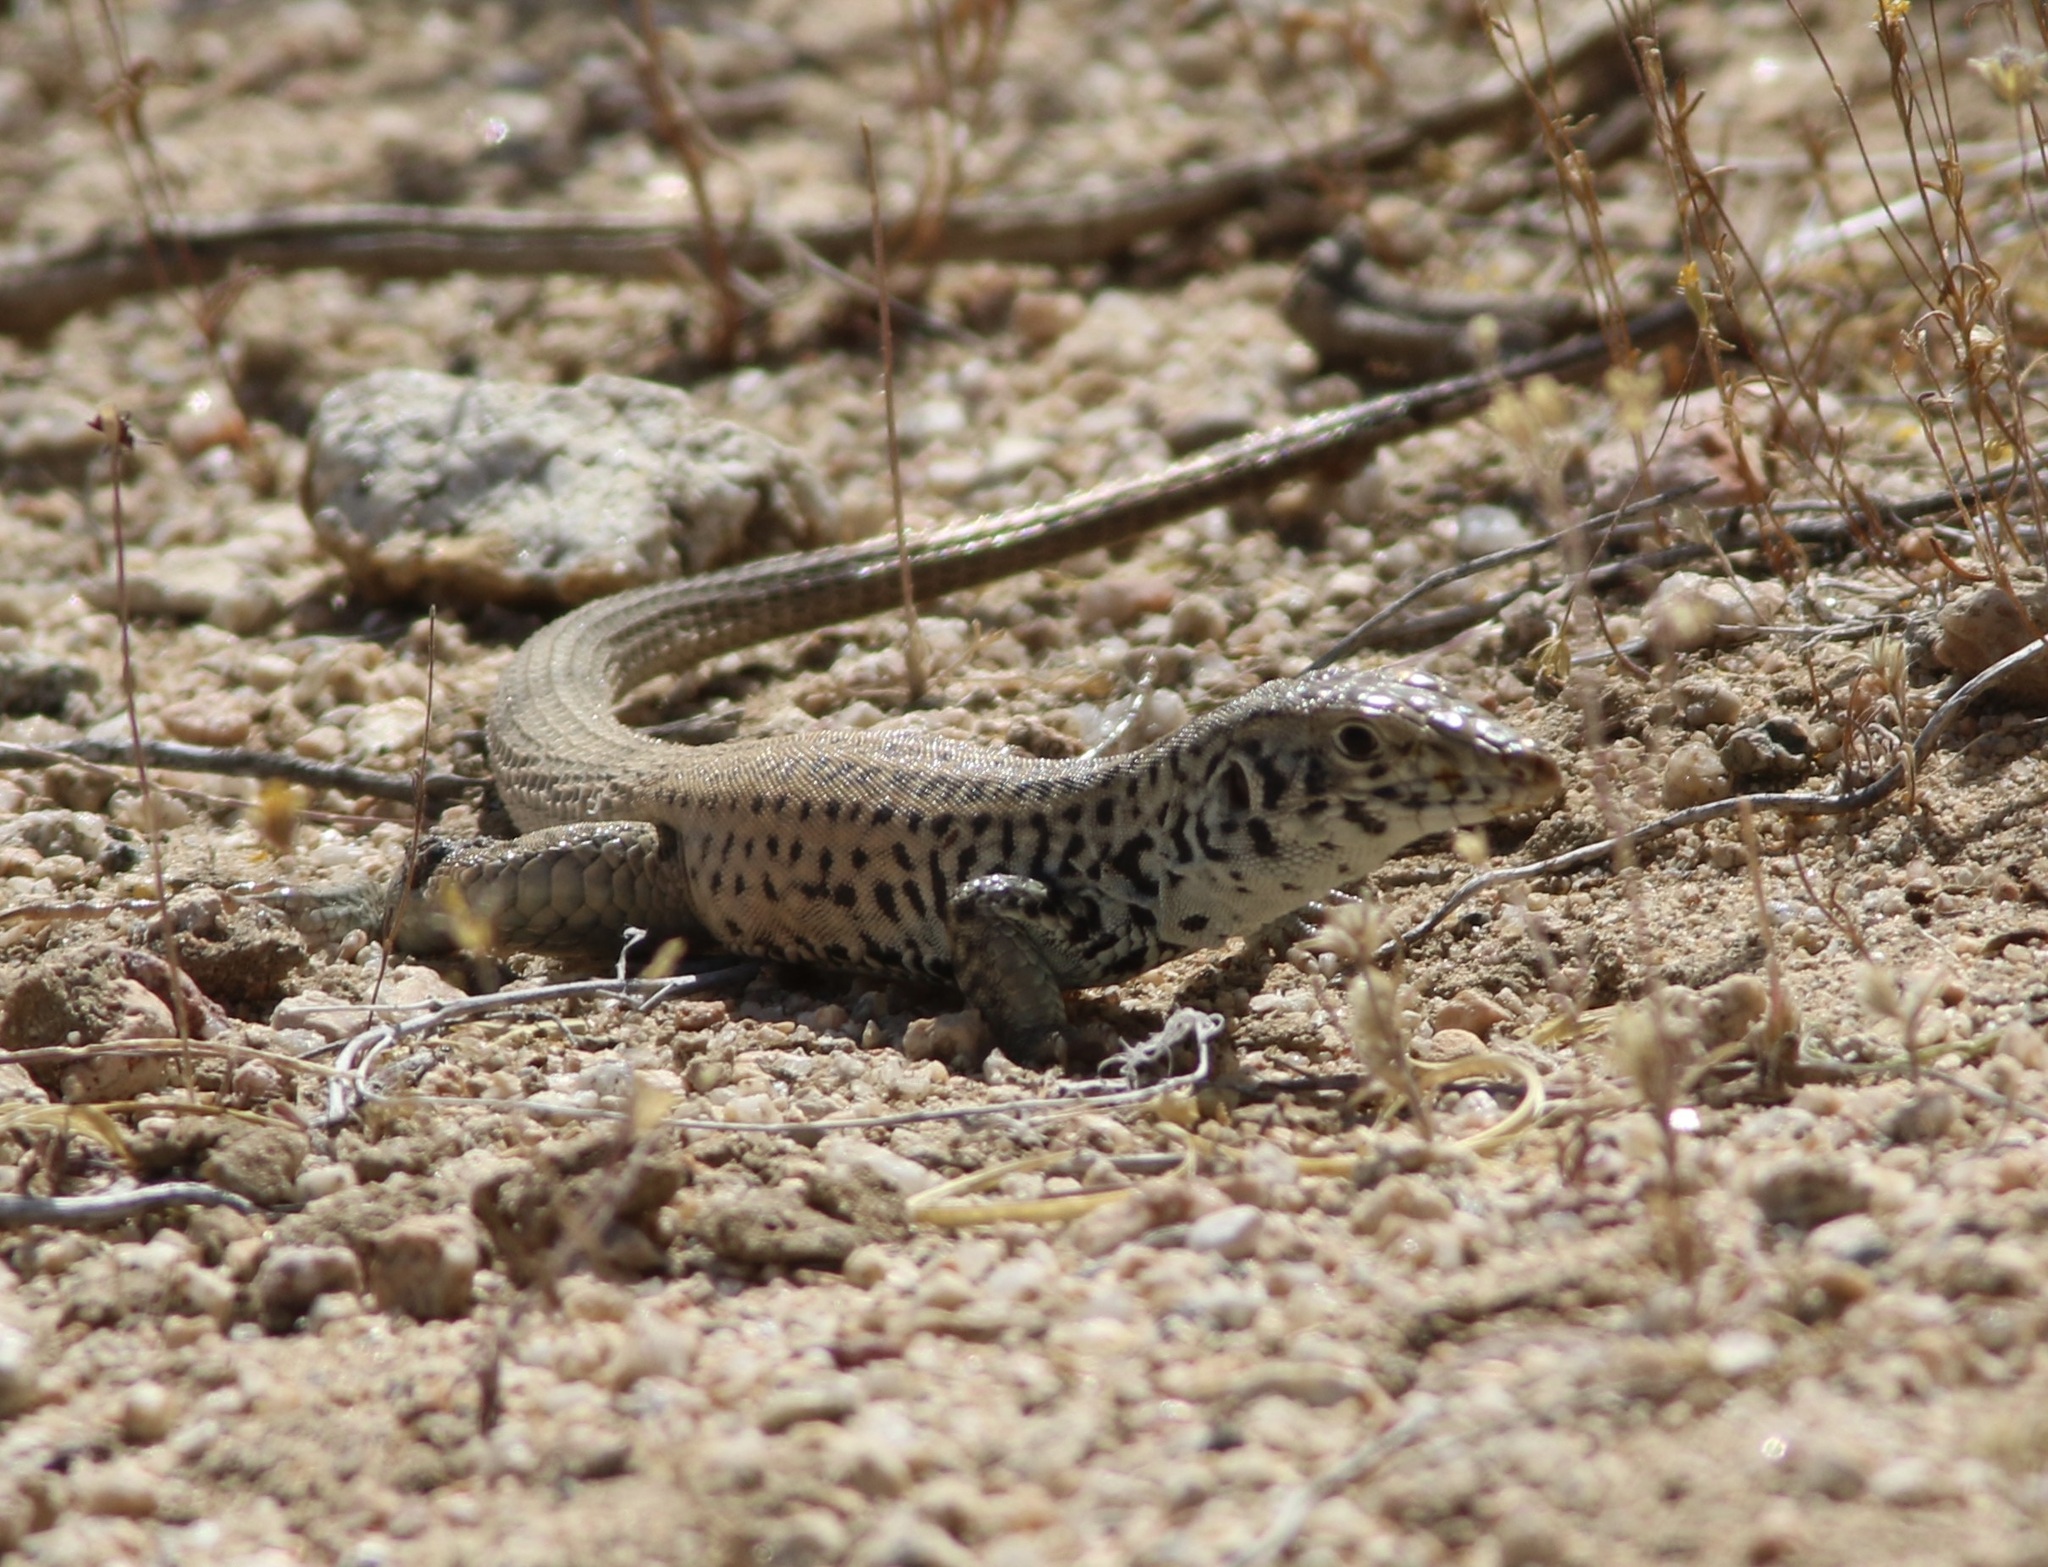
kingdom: Animalia
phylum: Chordata
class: Squamata
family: Teiidae
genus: Aspidoscelis
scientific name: Aspidoscelis tigris
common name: Tiger whiptail
